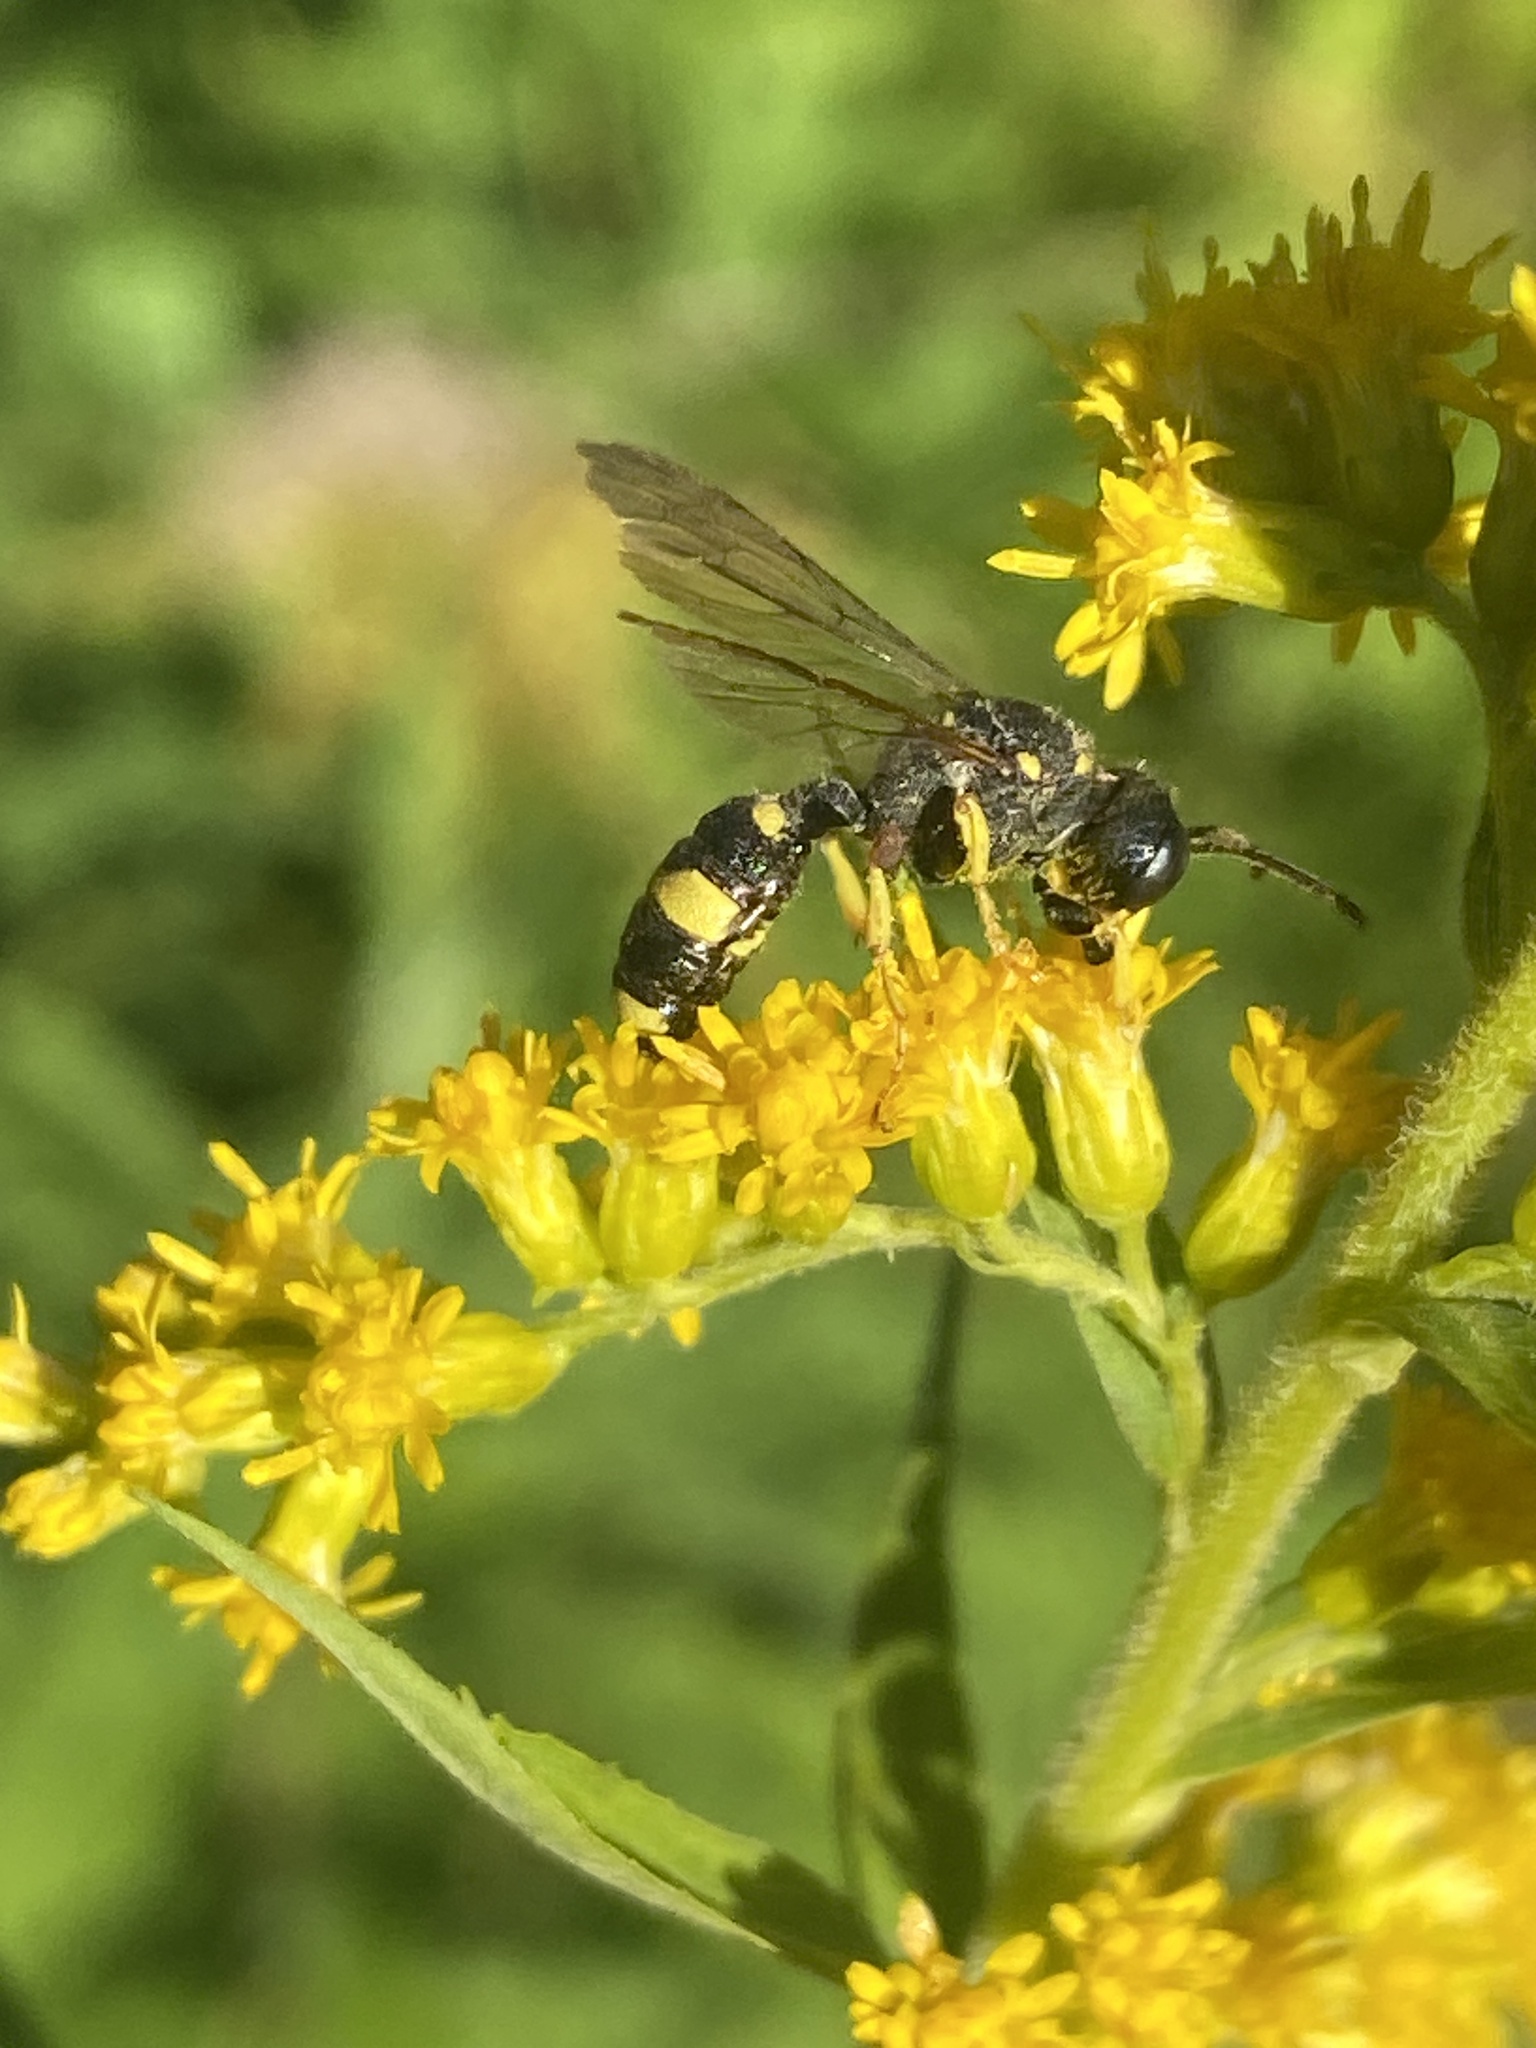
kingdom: Animalia
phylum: Arthropoda
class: Insecta
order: Hymenoptera
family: Crabronidae
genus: Cerceris
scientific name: Cerceris rybyensis
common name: Ornate tailed digger wasp
